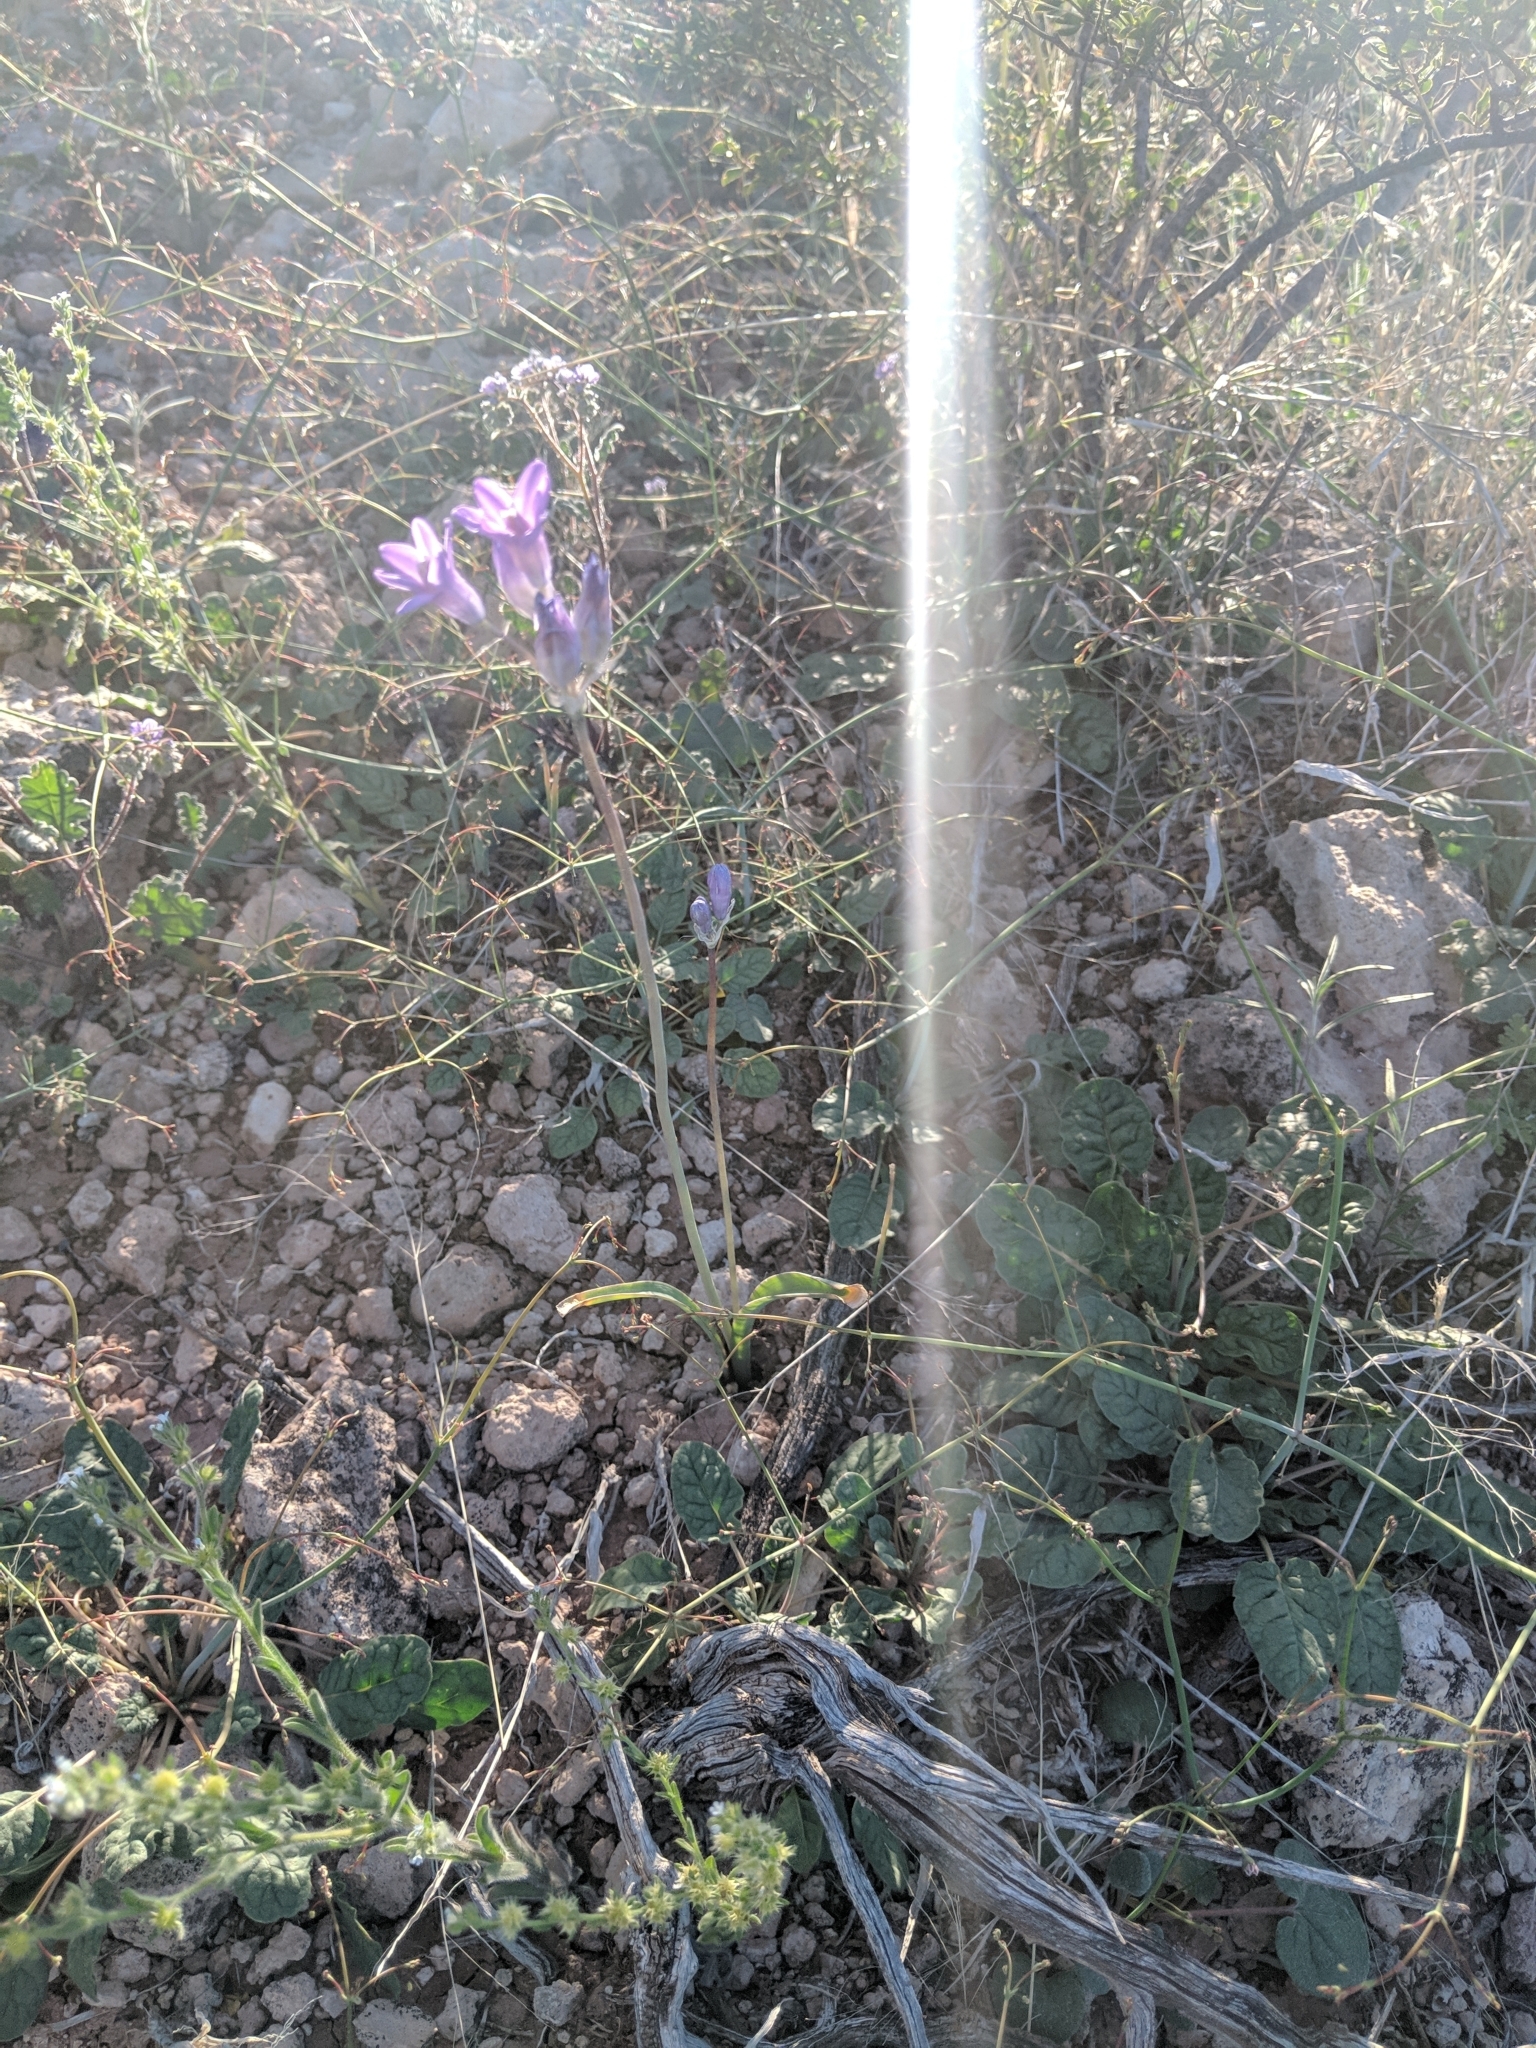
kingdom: Plantae
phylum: Tracheophyta
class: Liliopsida
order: Asparagales
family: Asparagaceae
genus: Dipterostemon
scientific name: Dipterostemon capitatus
